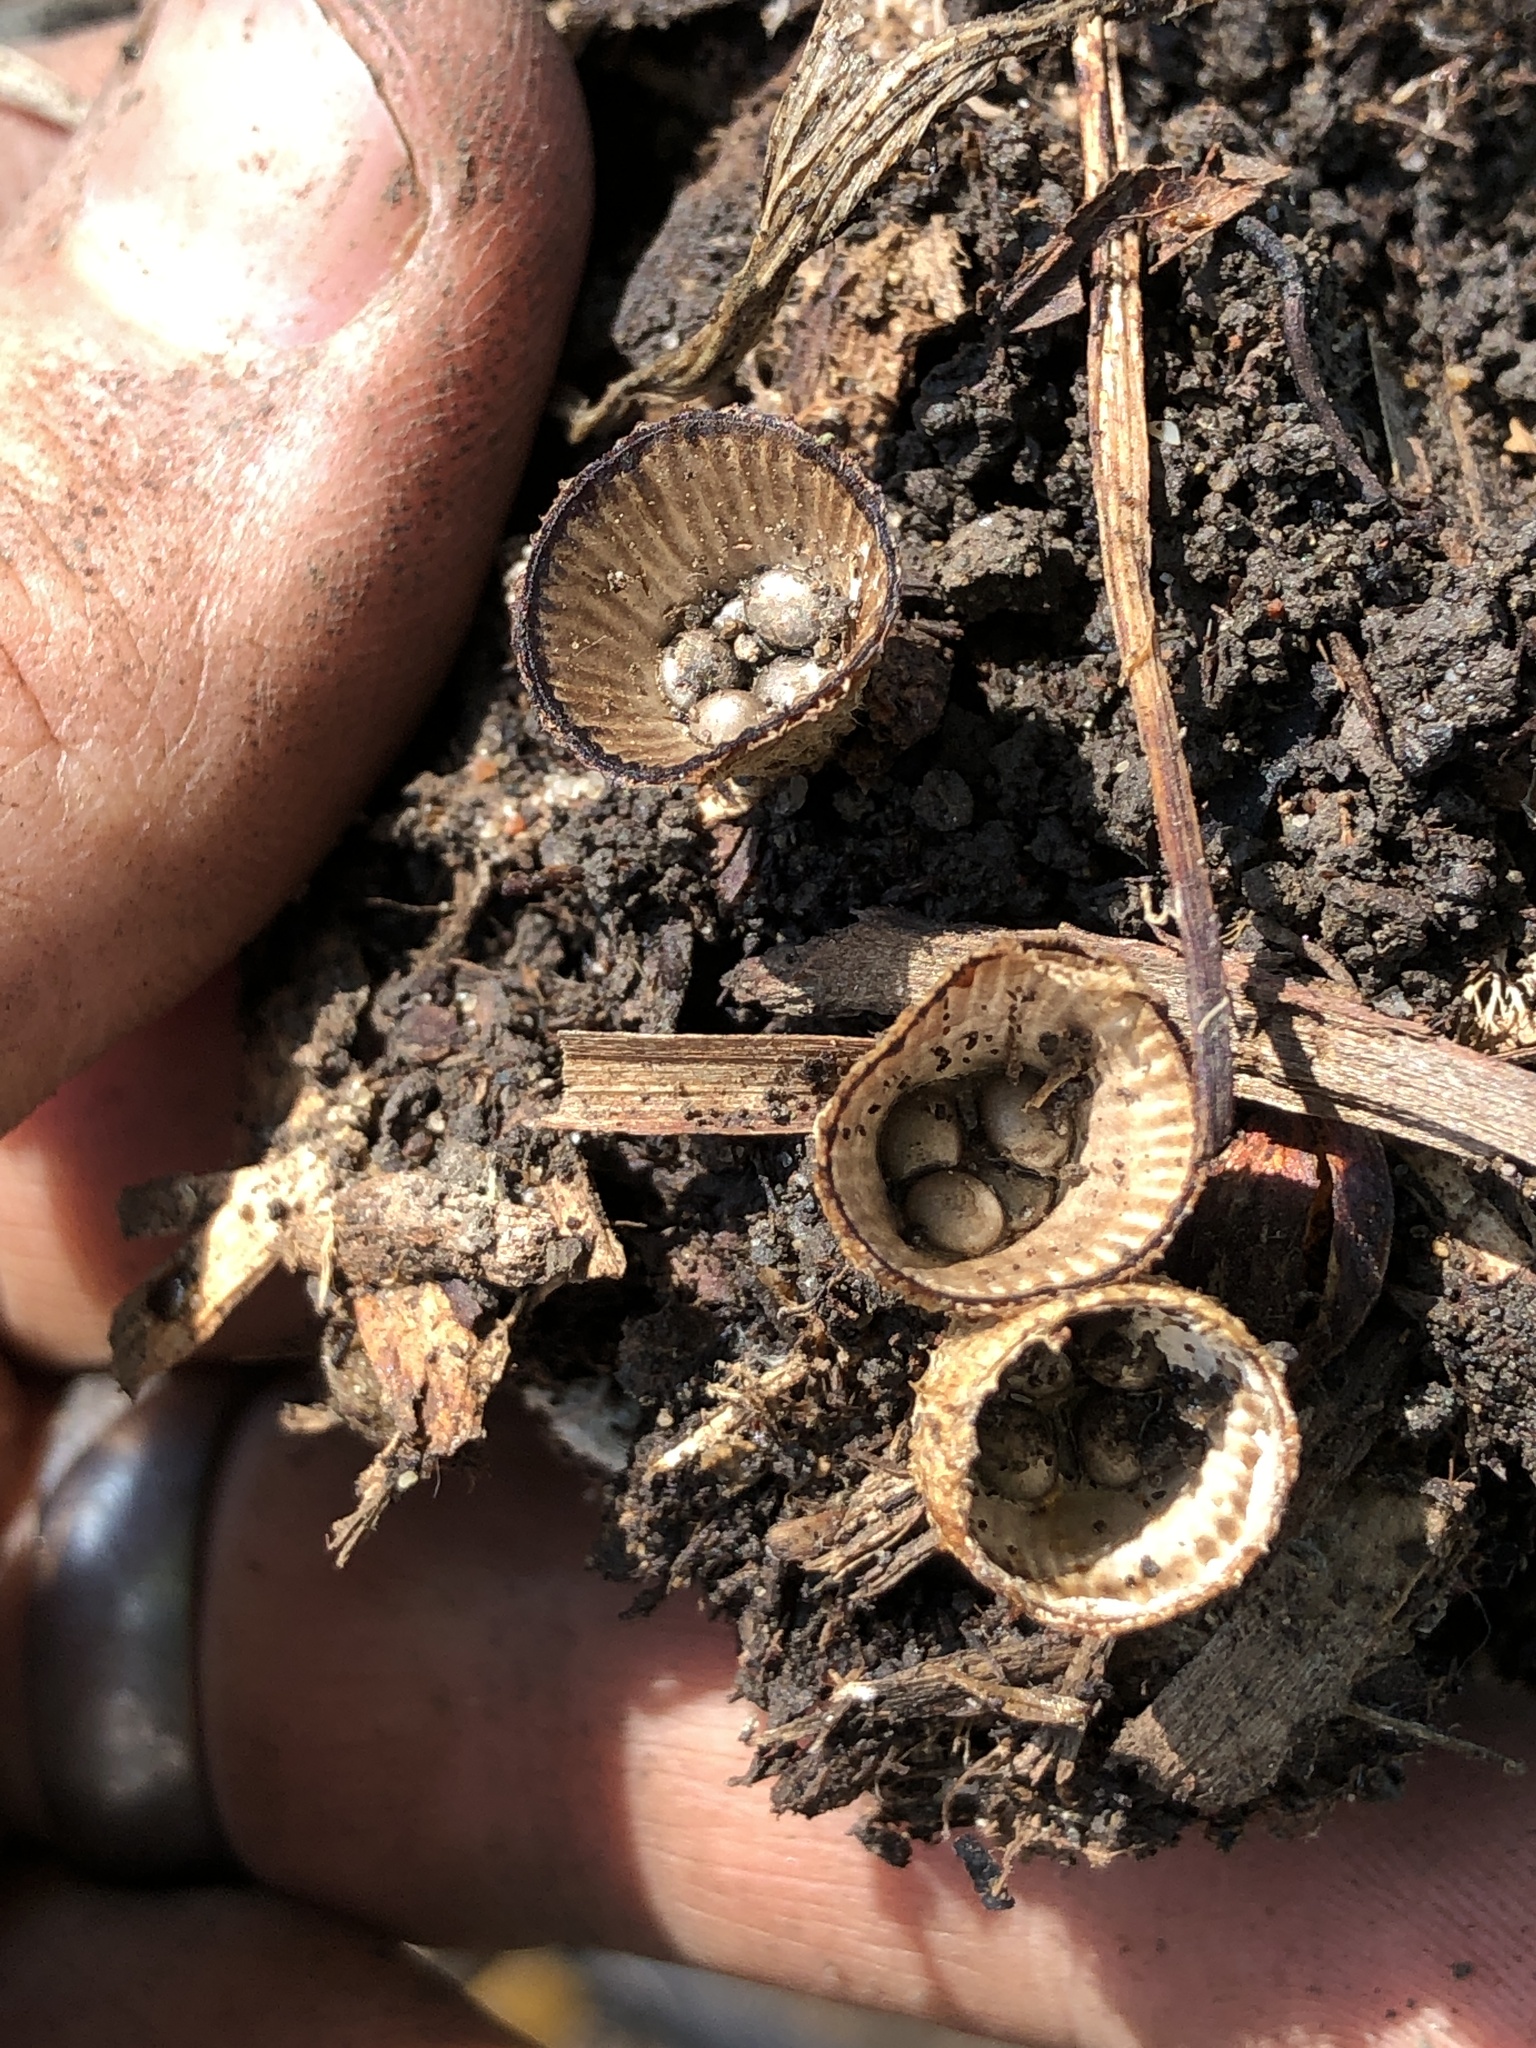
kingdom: Fungi
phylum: Basidiomycota
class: Agaricomycetes
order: Agaricales
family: Agaricaceae
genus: Cyathus
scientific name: Cyathus striatus
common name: Fluted bird's nest
